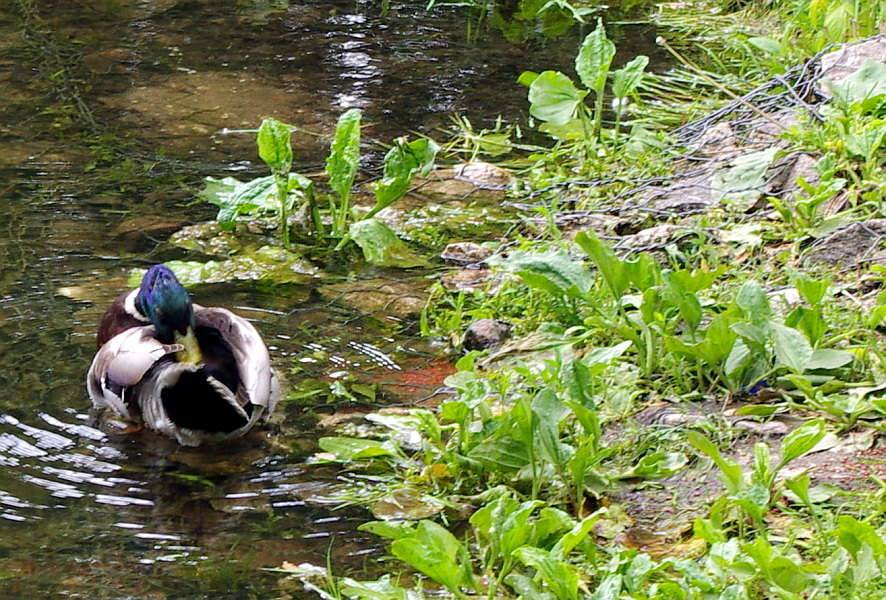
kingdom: Animalia
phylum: Chordata
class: Aves
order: Anseriformes
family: Anatidae
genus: Anas
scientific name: Anas platyrhynchos
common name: Mallard
